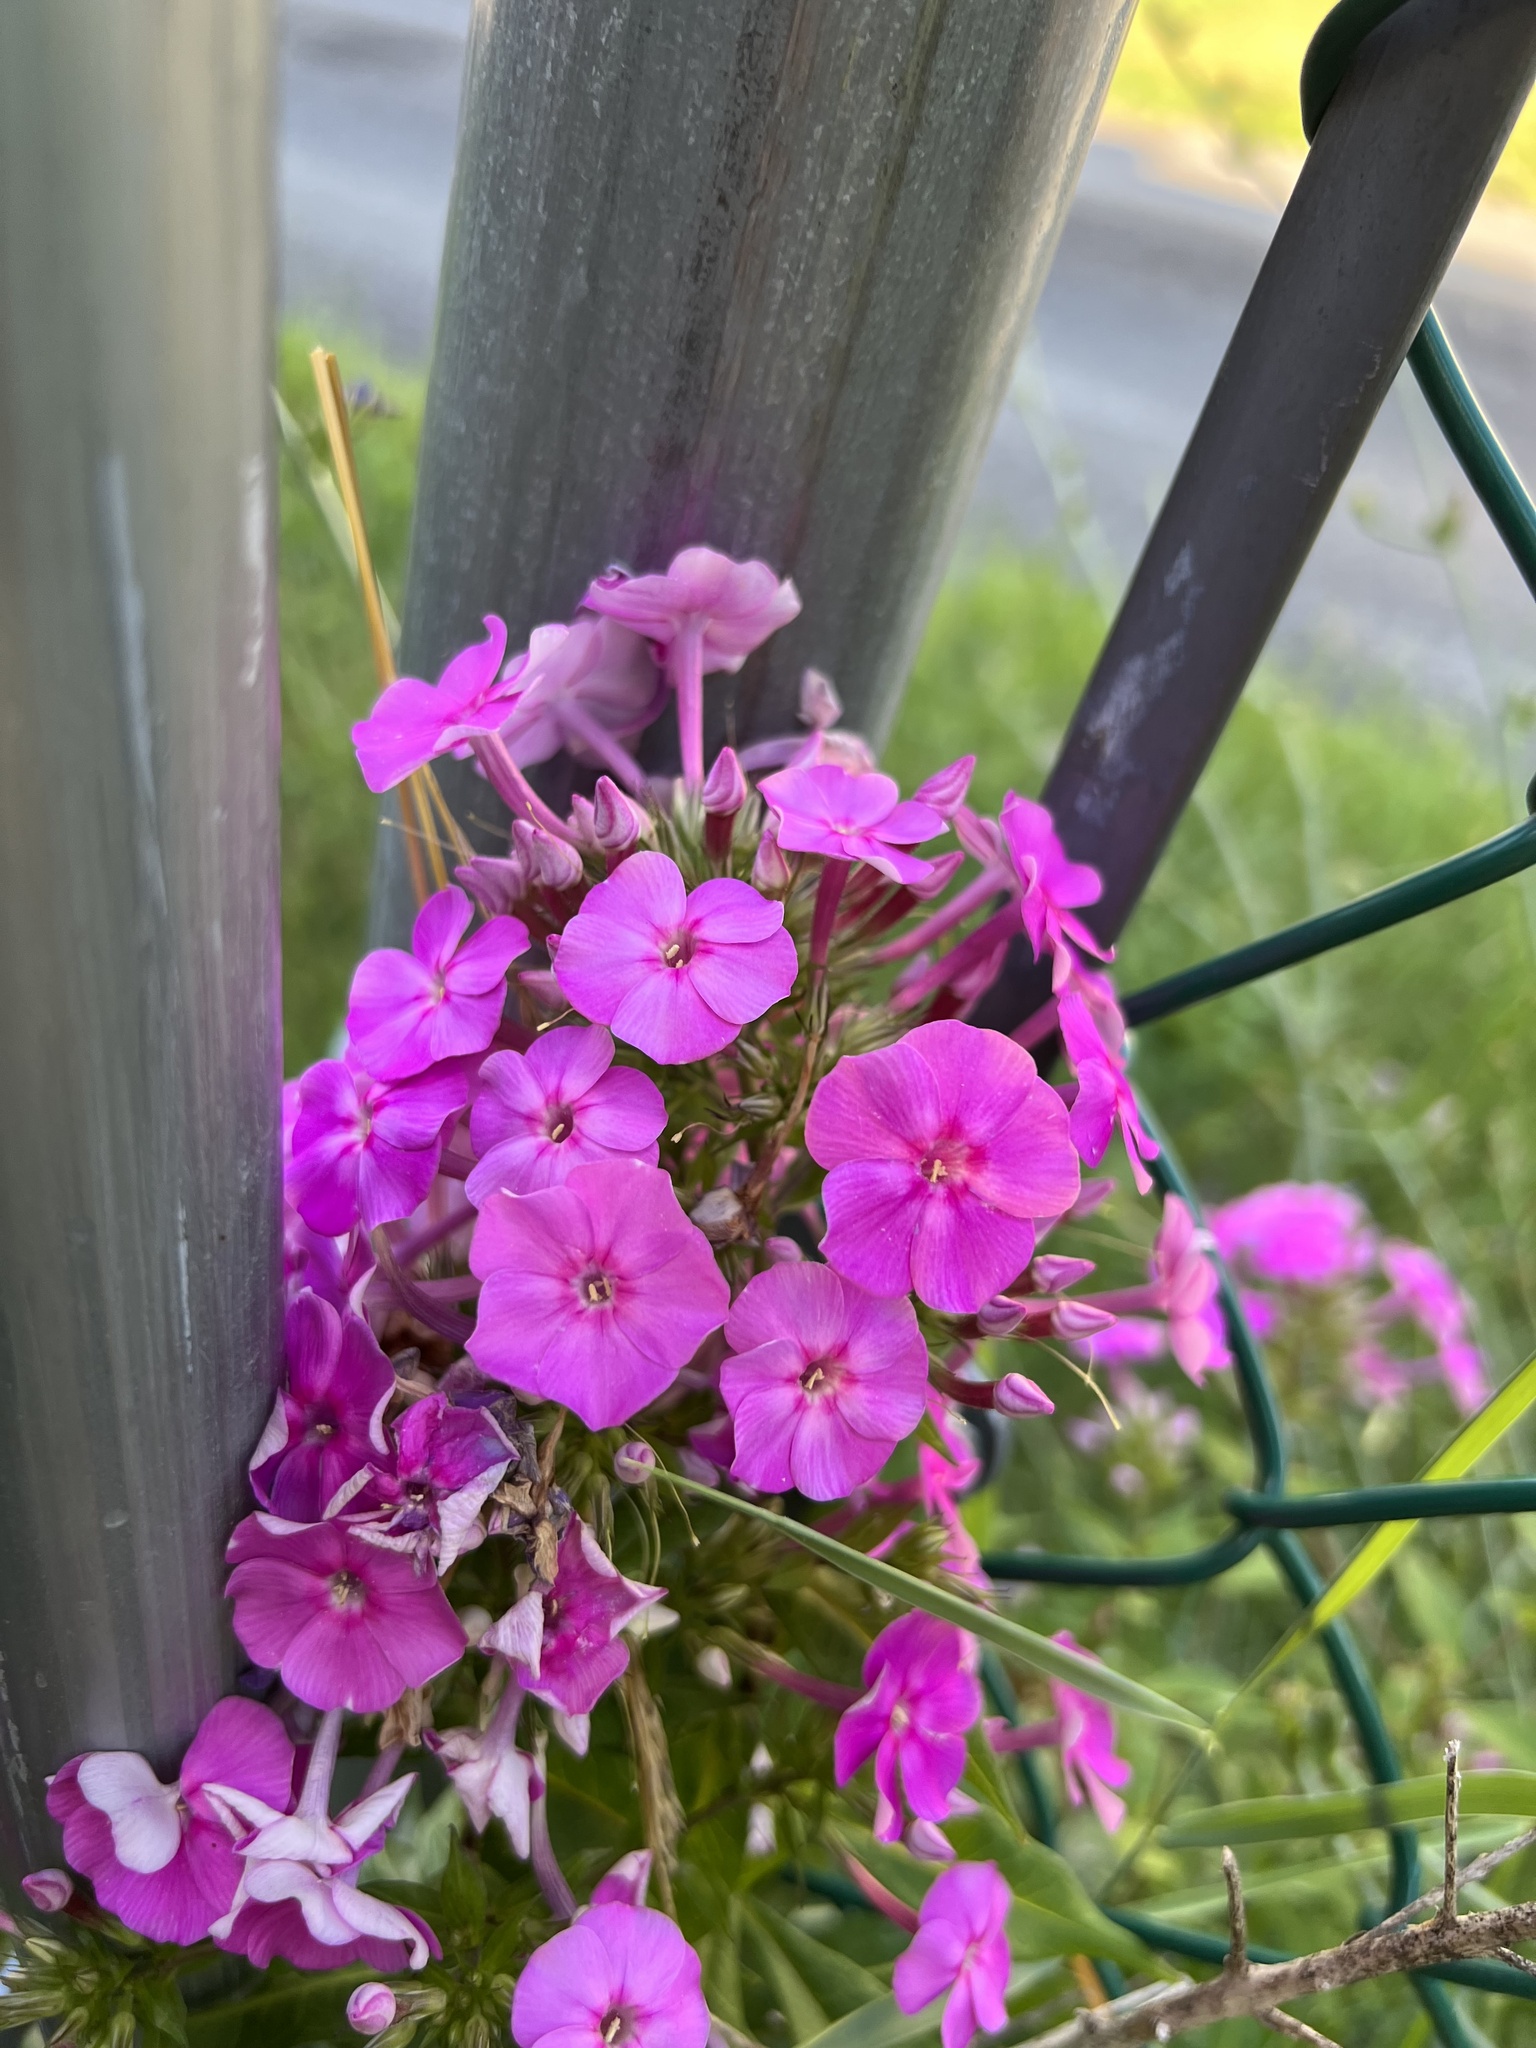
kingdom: Plantae
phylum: Tracheophyta
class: Magnoliopsida
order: Ericales
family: Polemoniaceae
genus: Phlox
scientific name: Phlox paniculata
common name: Fall phlox
